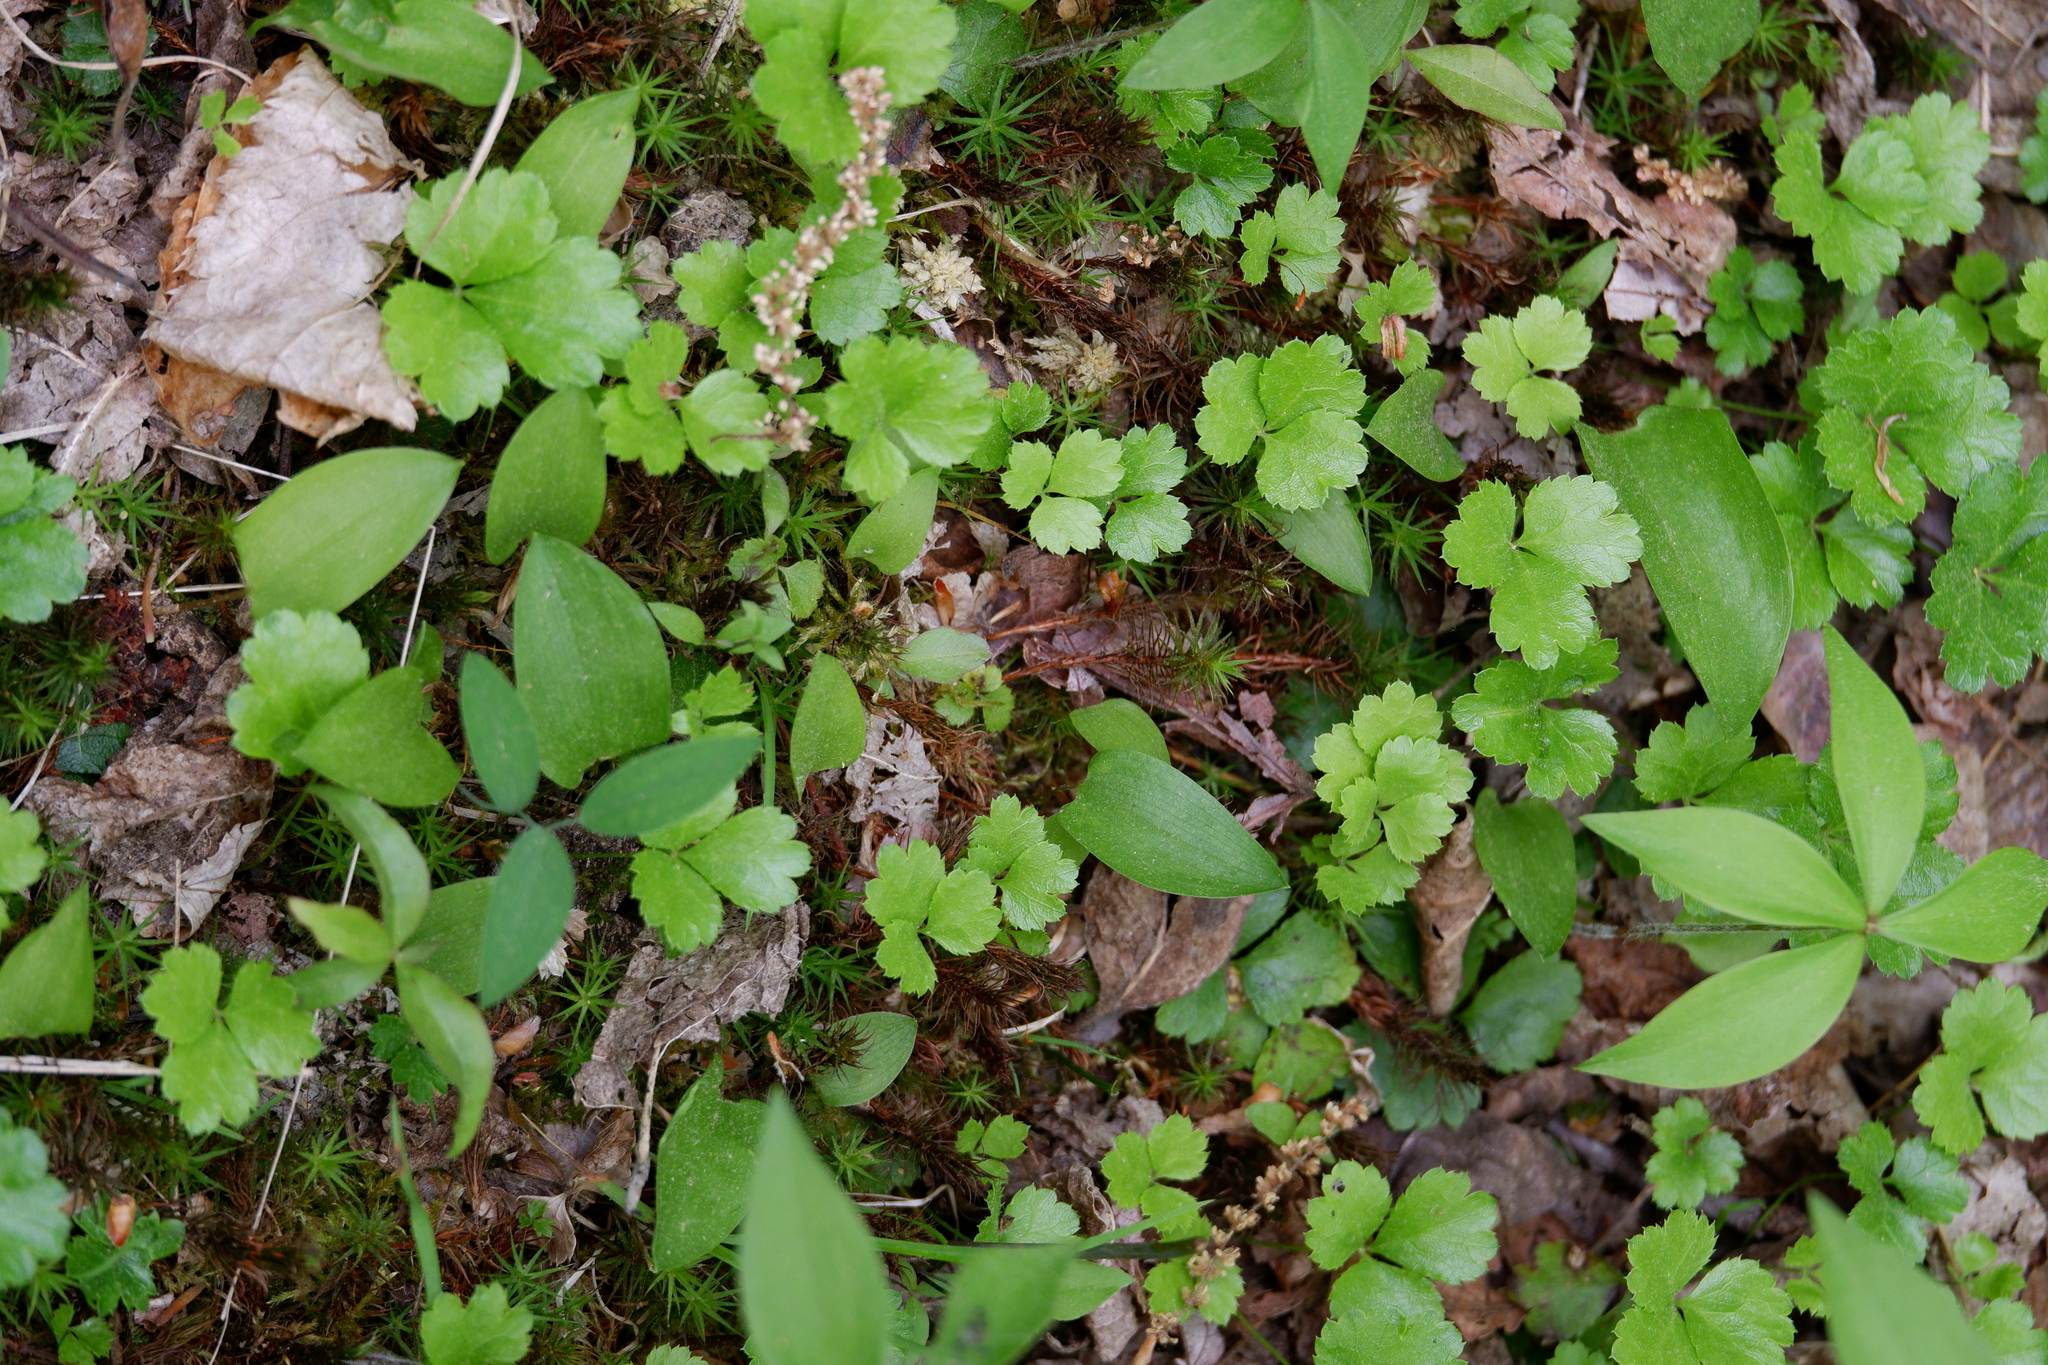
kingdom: Plantae
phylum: Tracheophyta
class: Magnoliopsida
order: Ranunculales
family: Ranunculaceae
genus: Coptis
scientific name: Coptis trifolia
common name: Canker-root
